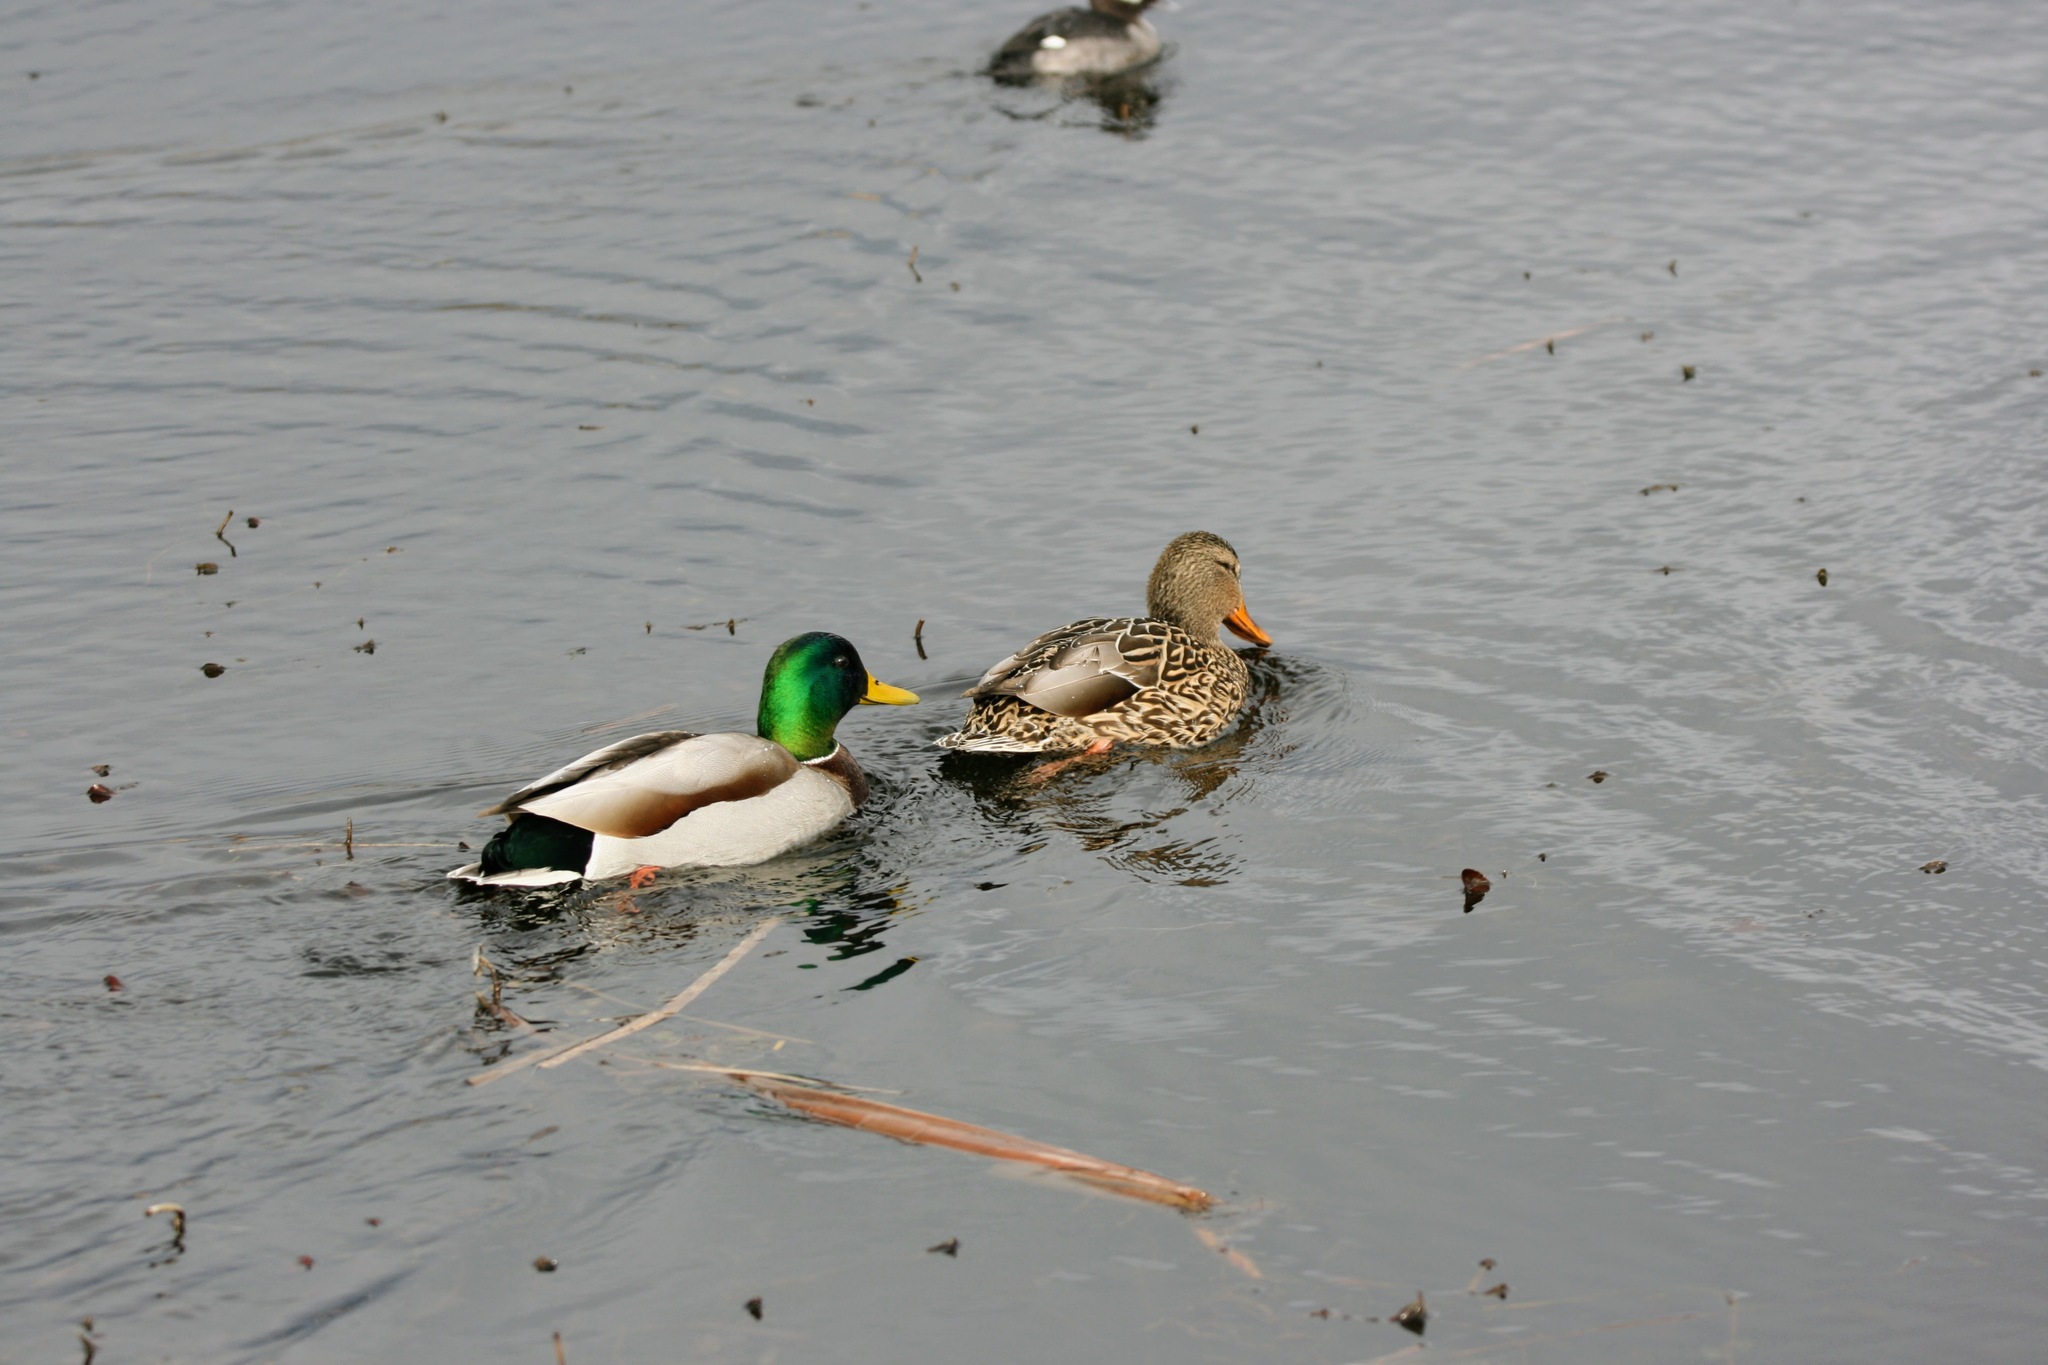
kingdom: Animalia
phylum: Chordata
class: Aves
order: Anseriformes
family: Anatidae
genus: Anas
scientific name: Anas platyrhynchos
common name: Mallard
